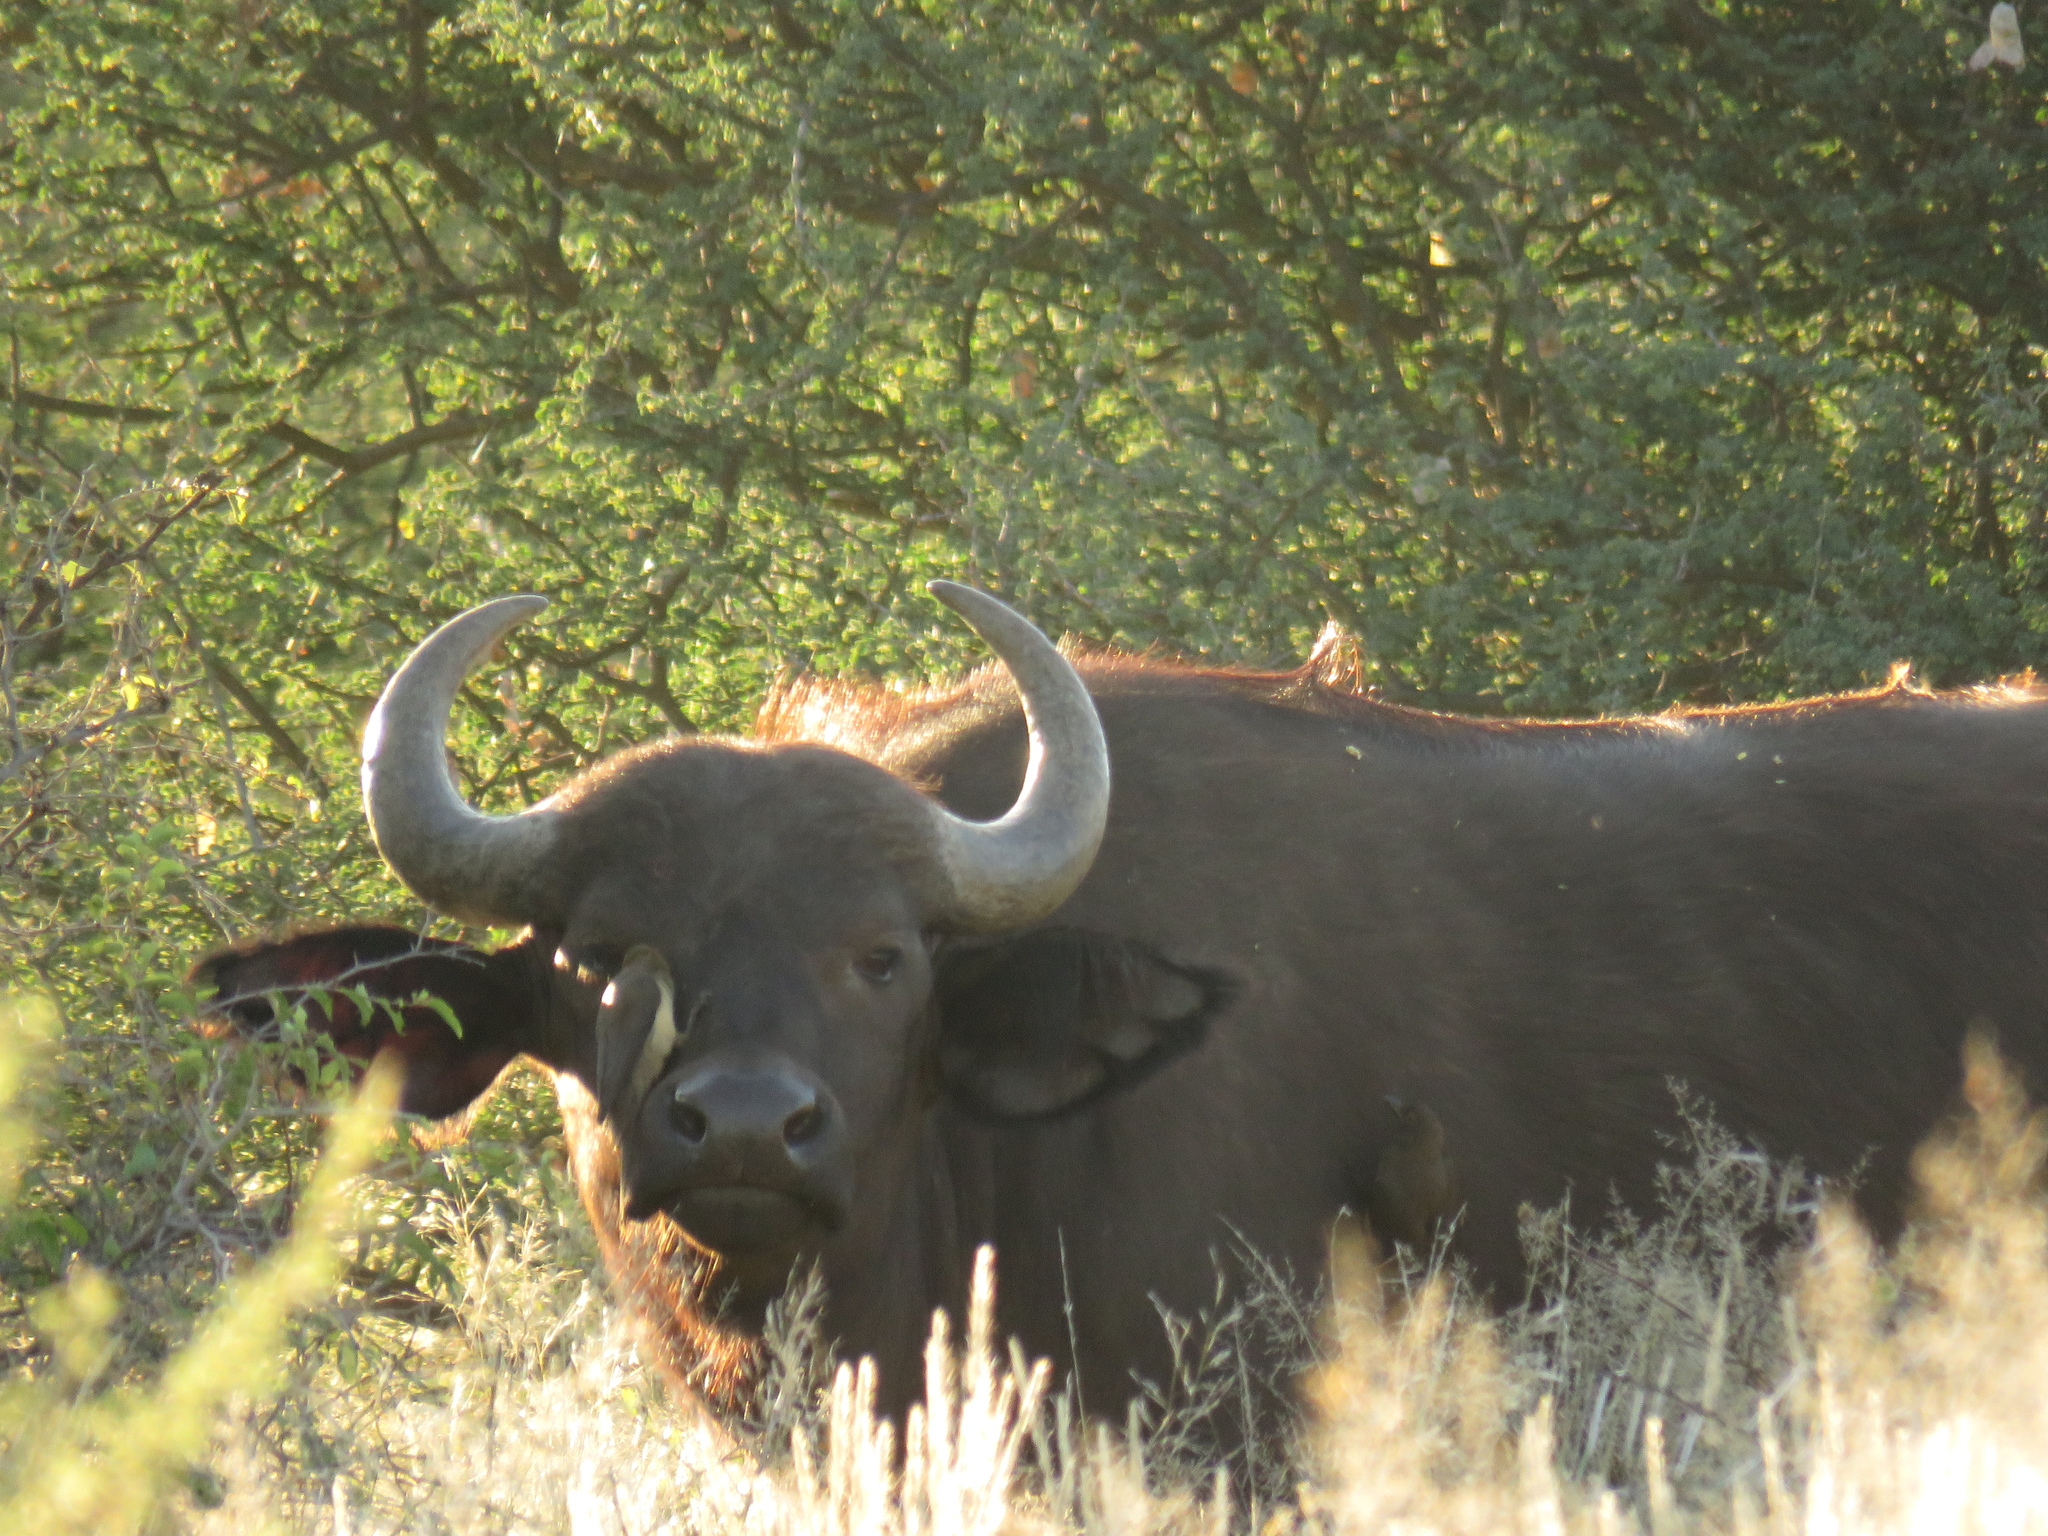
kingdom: Animalia
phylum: Chordata
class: Mammalia
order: Artiodactyla
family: Bovidae
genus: Syncerus
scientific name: Syncerus caffer
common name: African buffalo
